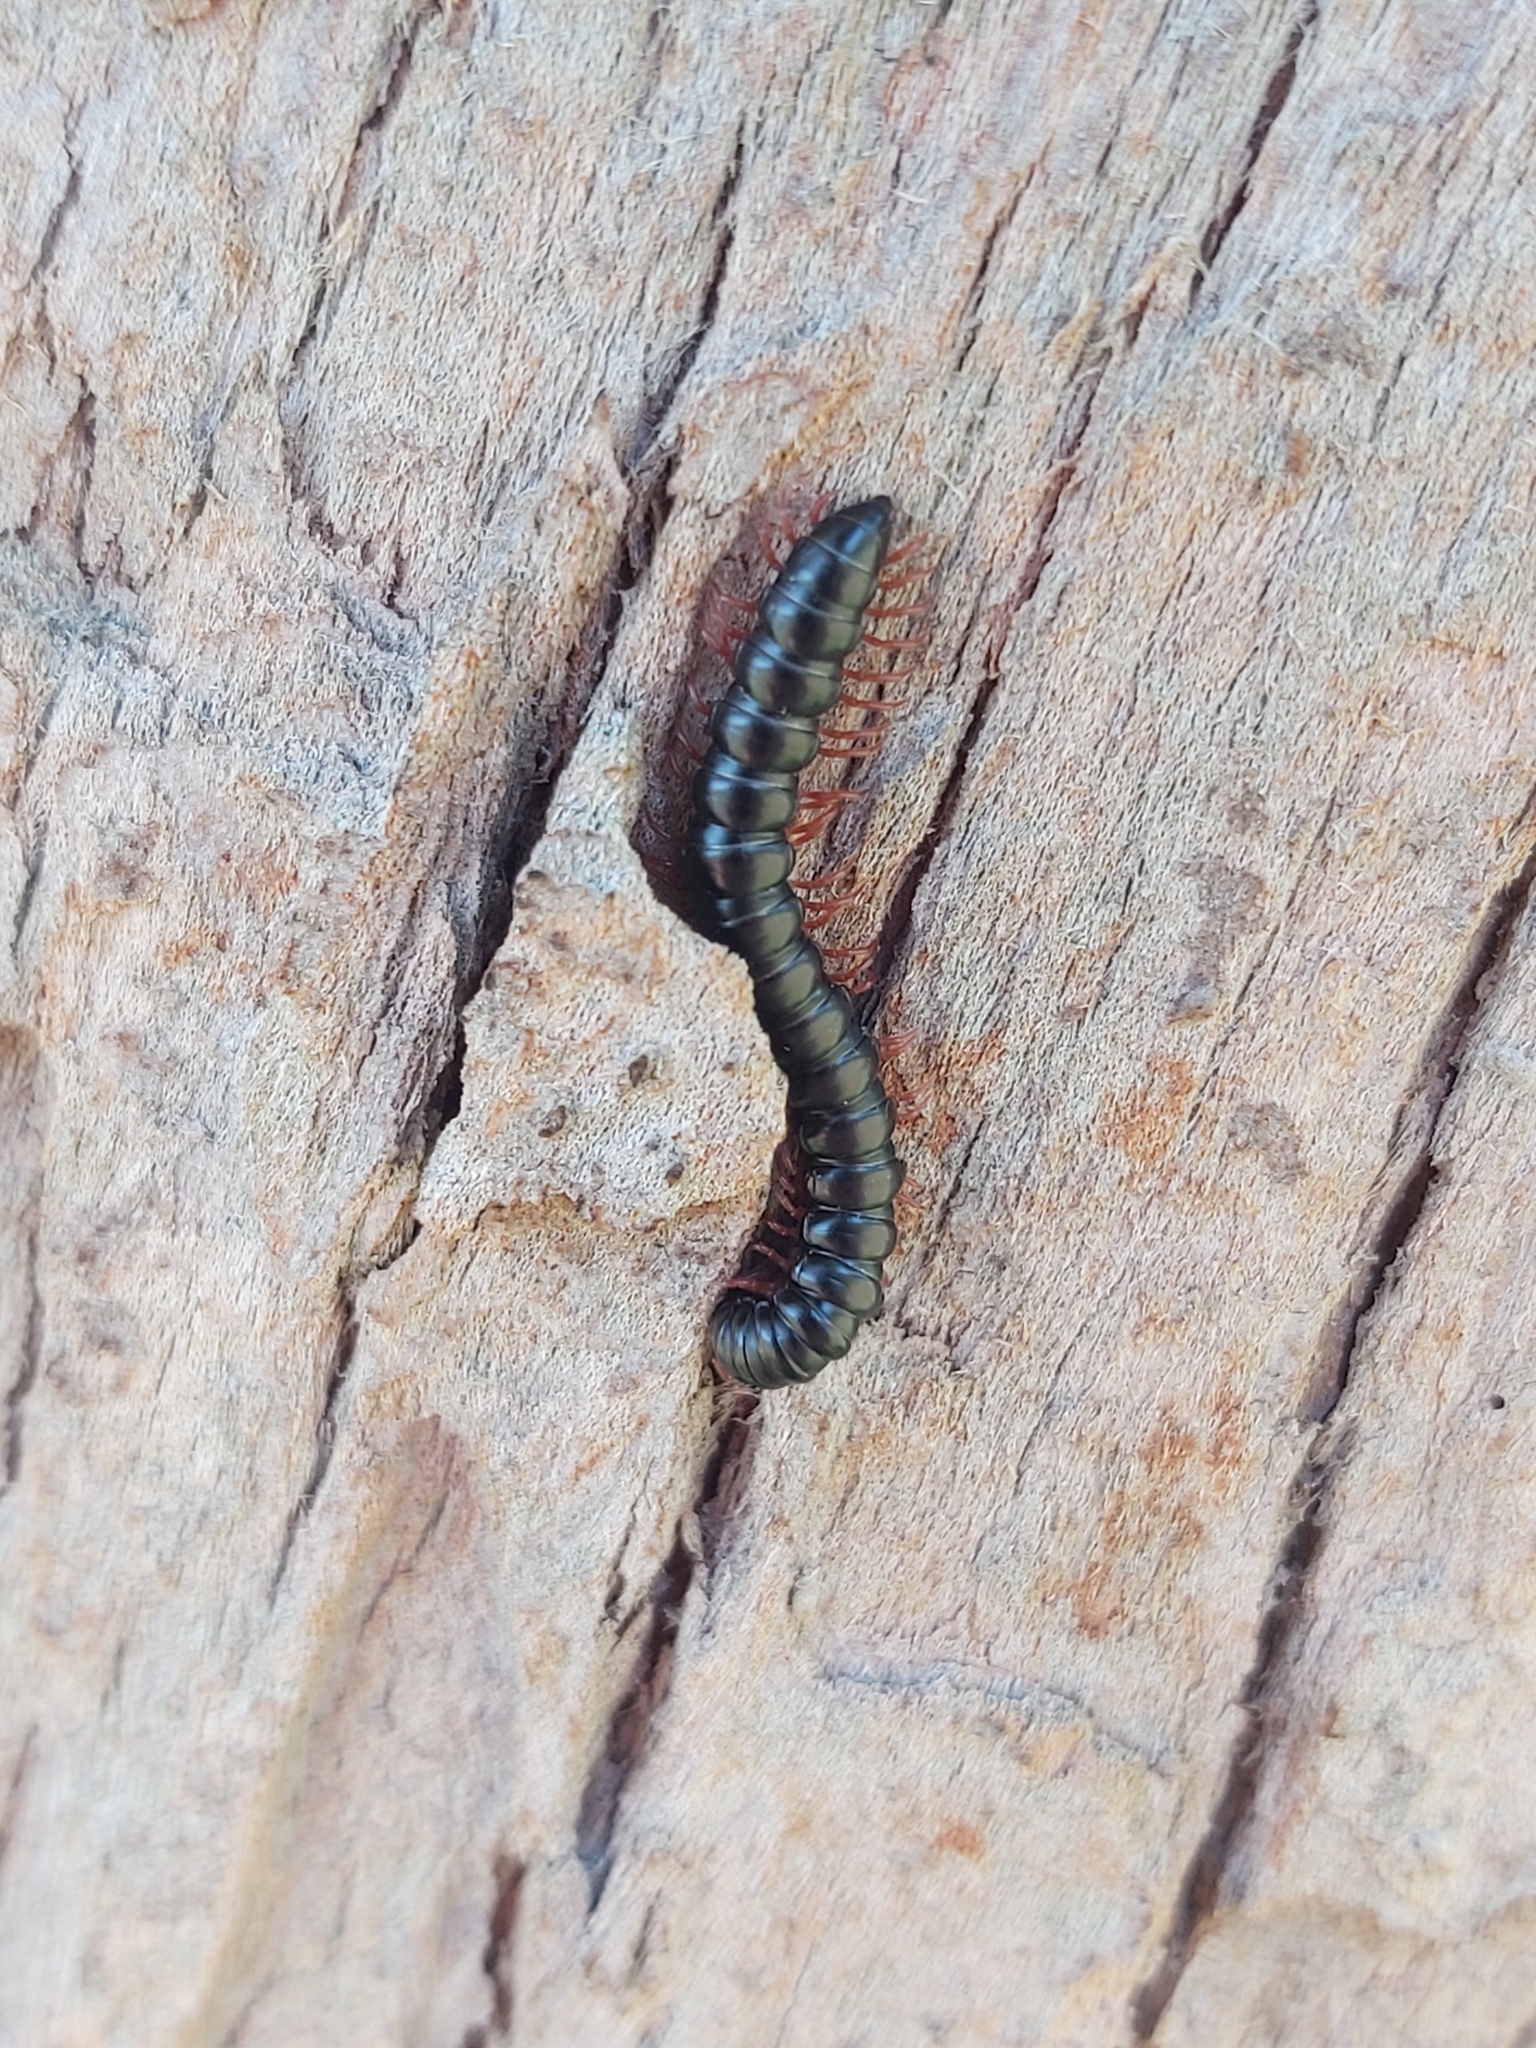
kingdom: Animalia
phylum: Arthropoda
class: Diplopoda
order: Polydesmida
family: Paradoxosomatidae
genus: Heterocladosoma
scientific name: Heterocladosoma
